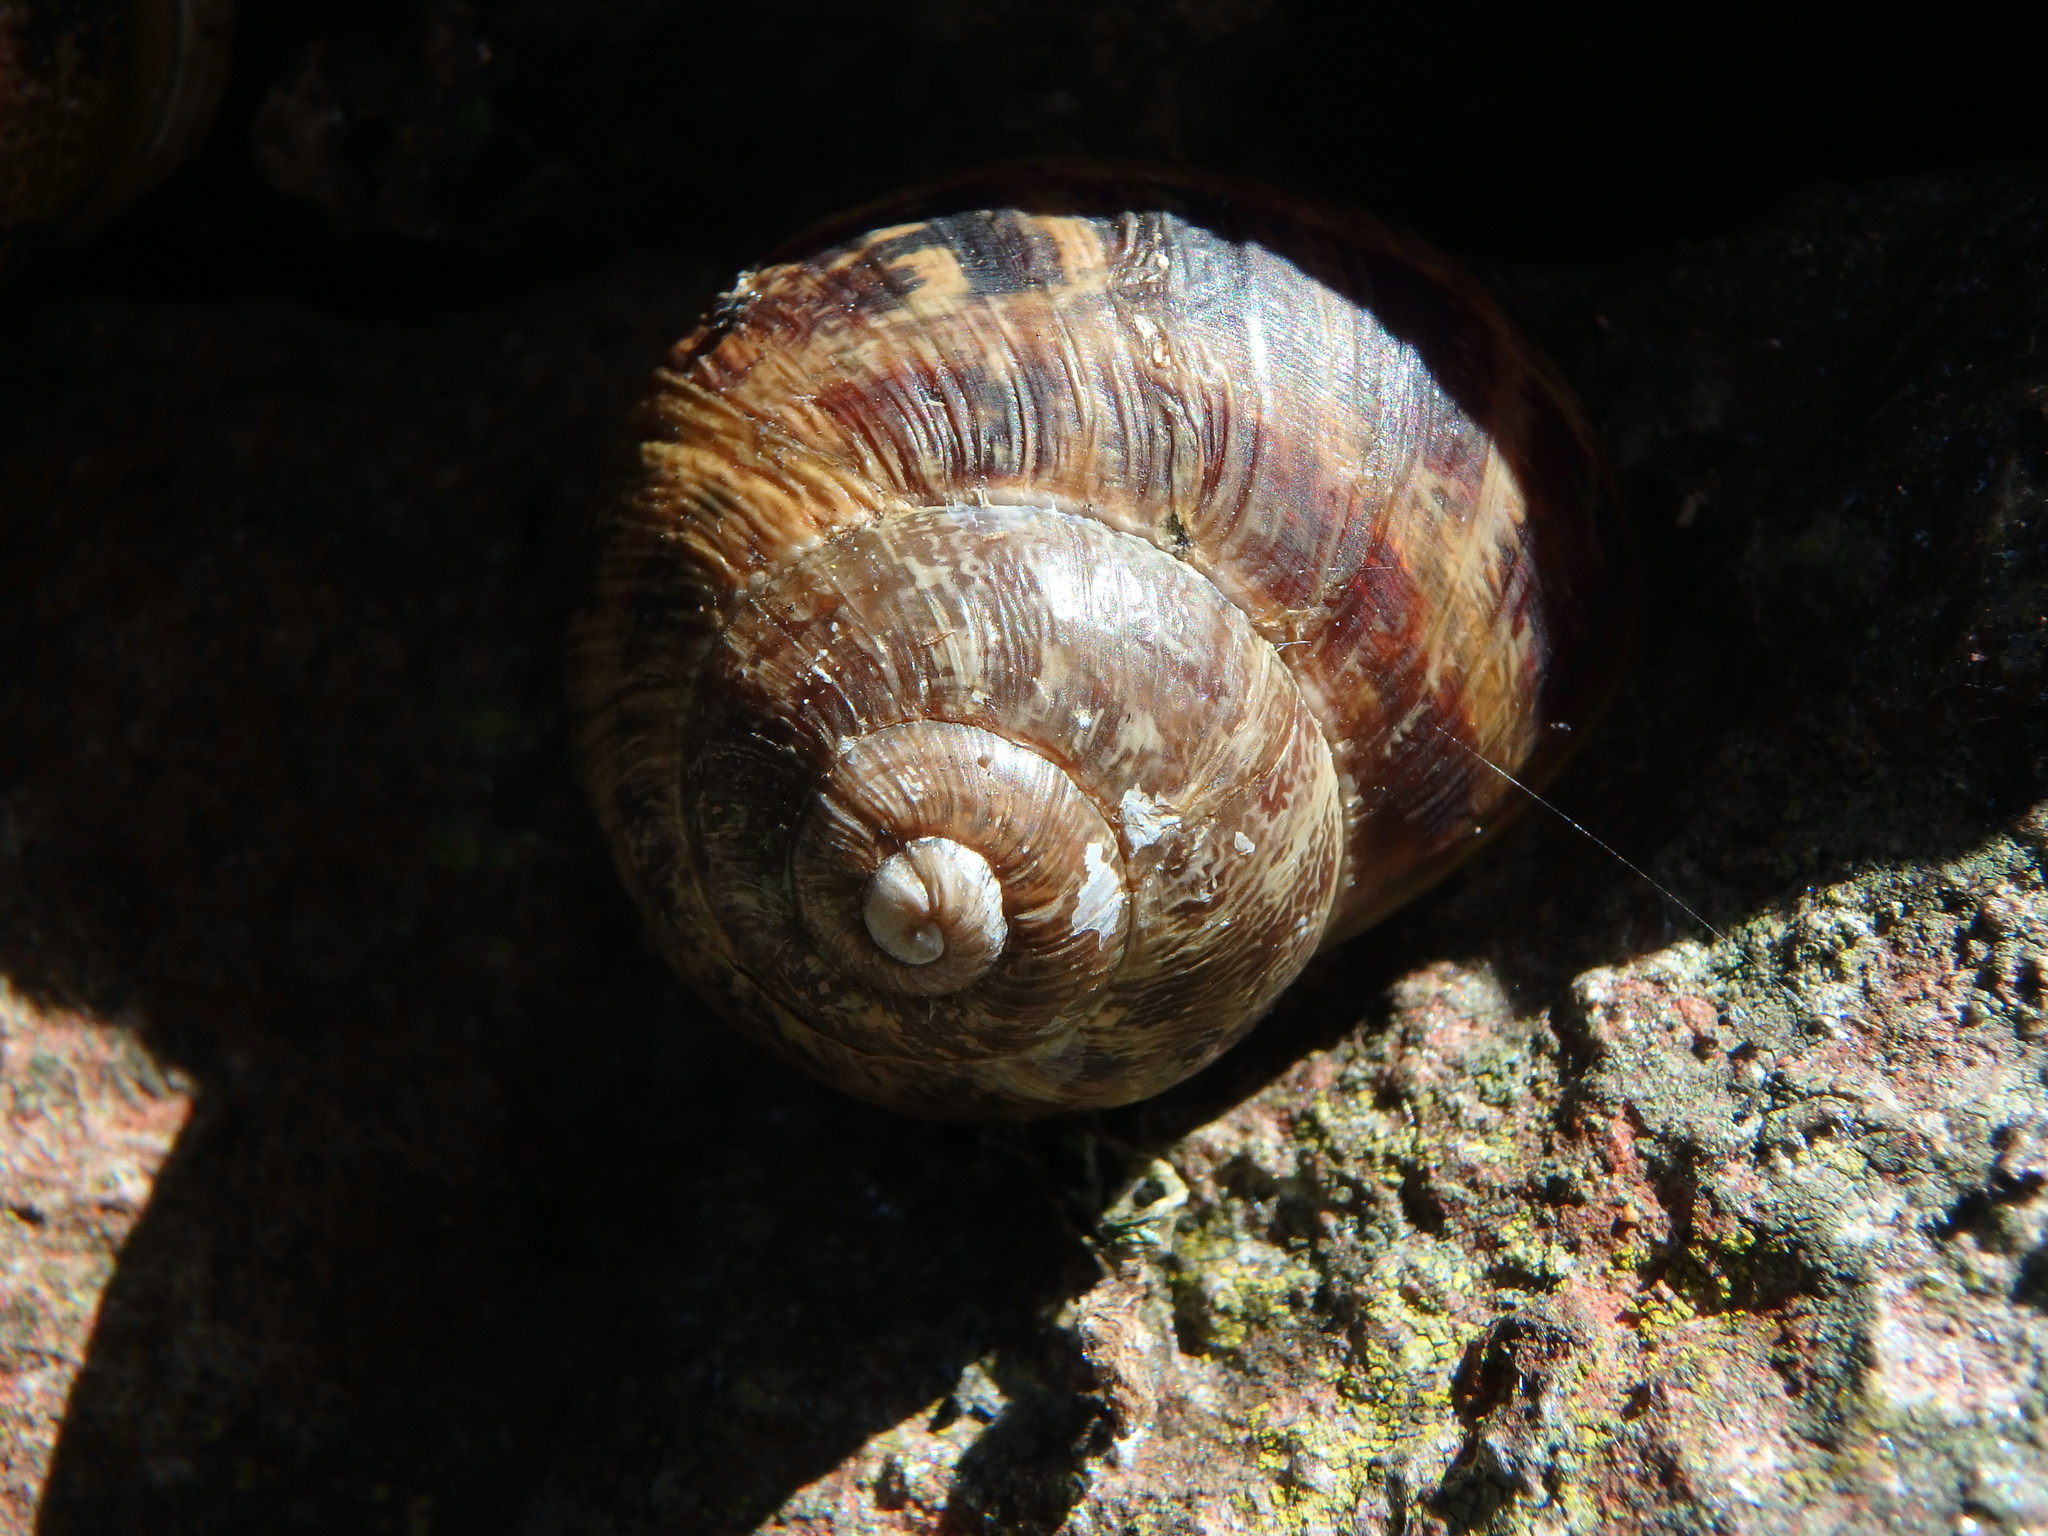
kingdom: Animalia
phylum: Mollusca
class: Gastropoda
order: Stylommatophora
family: Helicidae
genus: Cornu
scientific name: Cornu aspersum
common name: Brown garden snail
